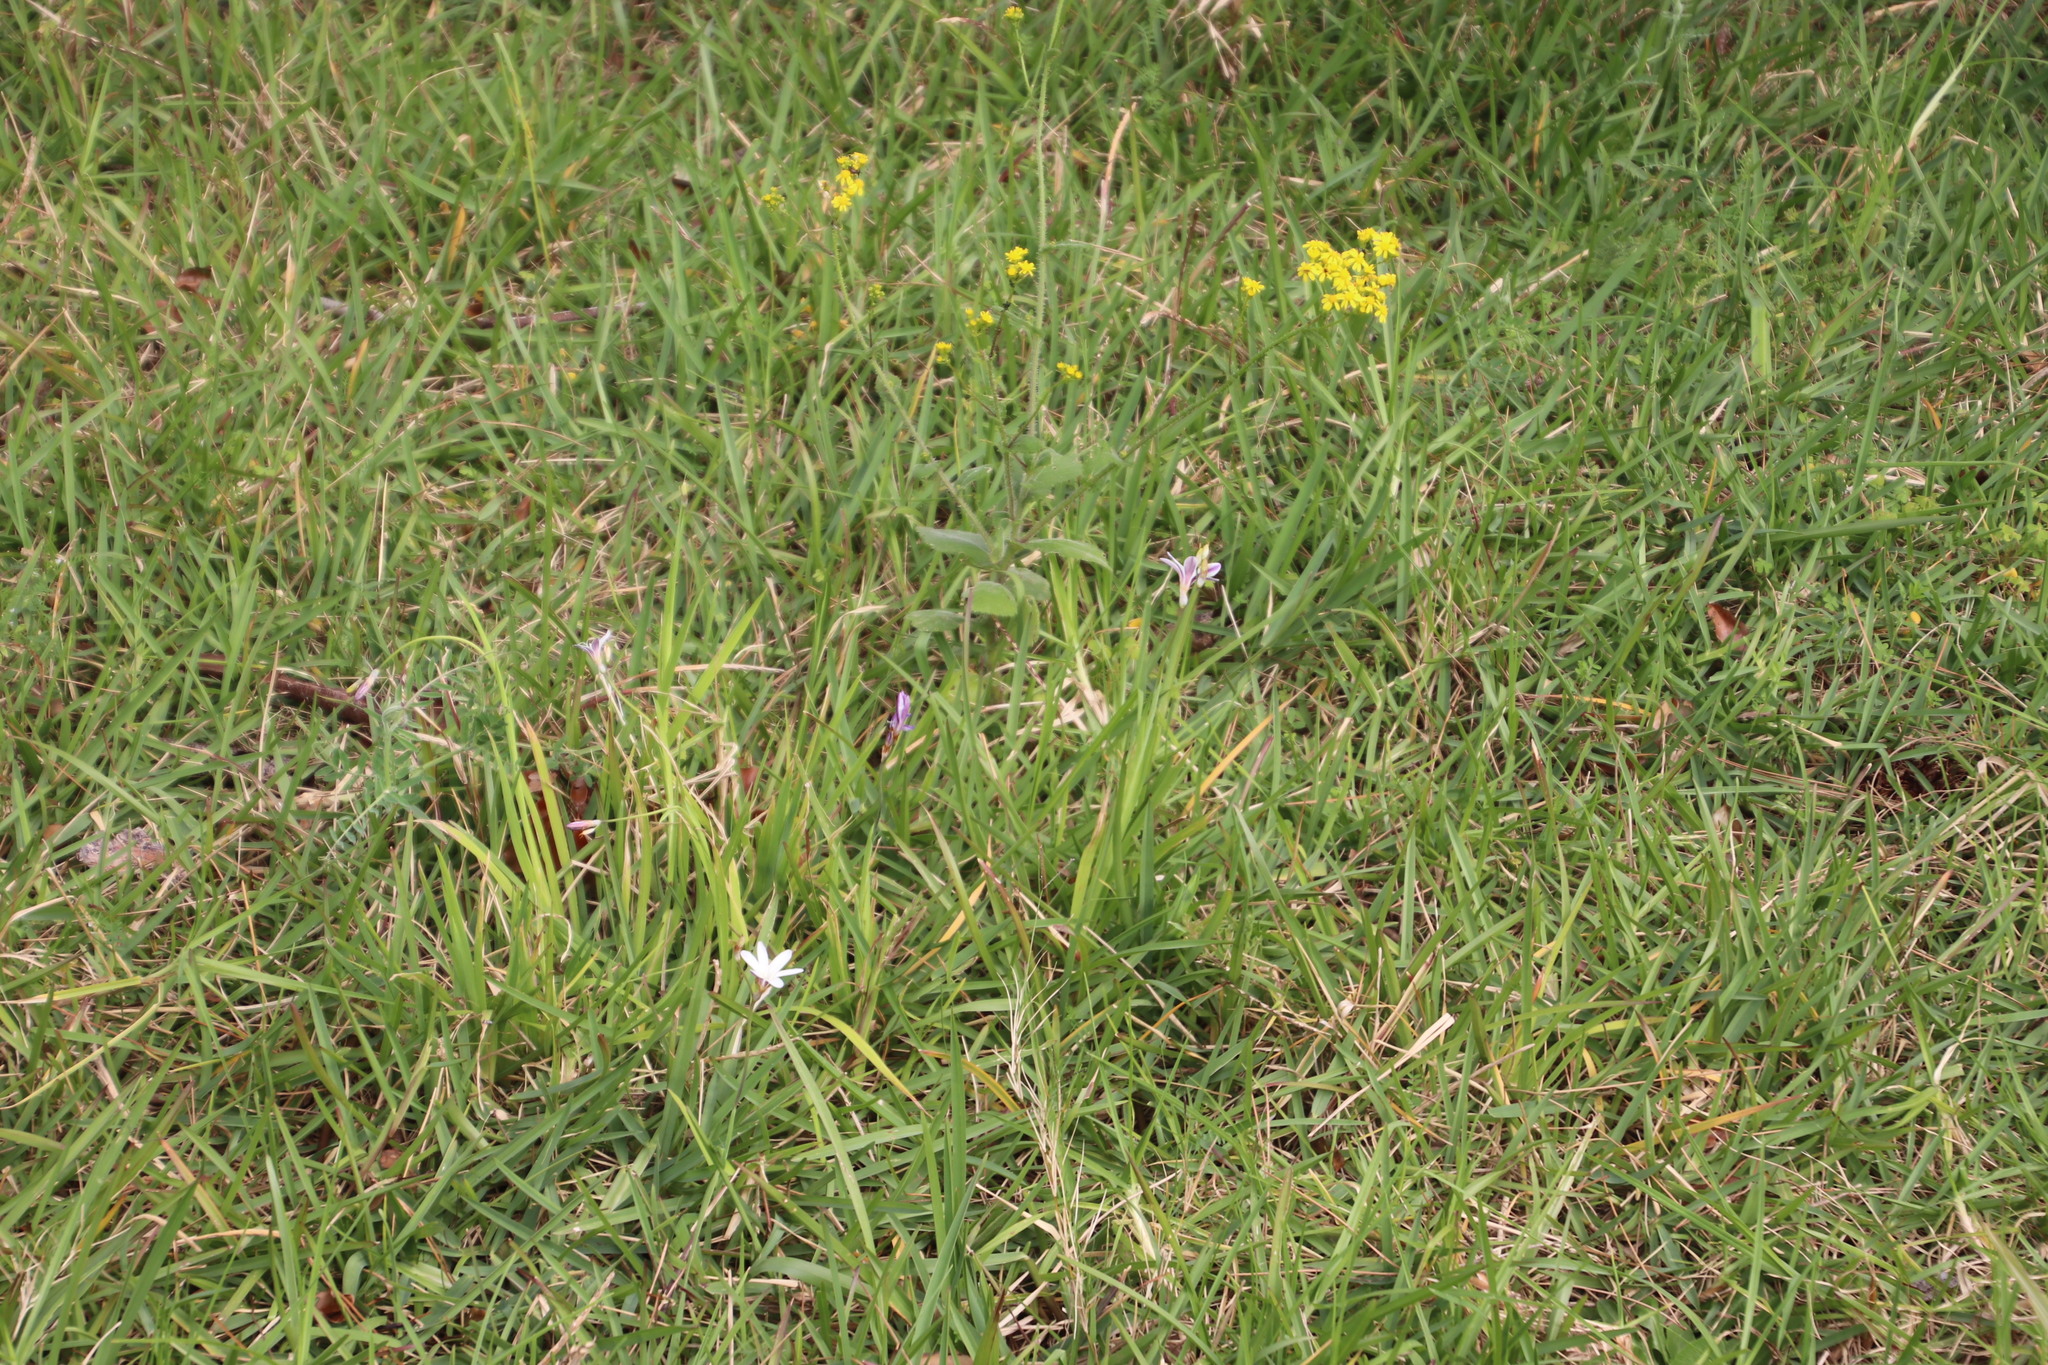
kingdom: Plantae
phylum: Tracheophyta
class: Liliopsida
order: Asparagales
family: Iridaceae
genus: Sparaxis
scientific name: Sparaxis bulbifera
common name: Harlequin-flower
